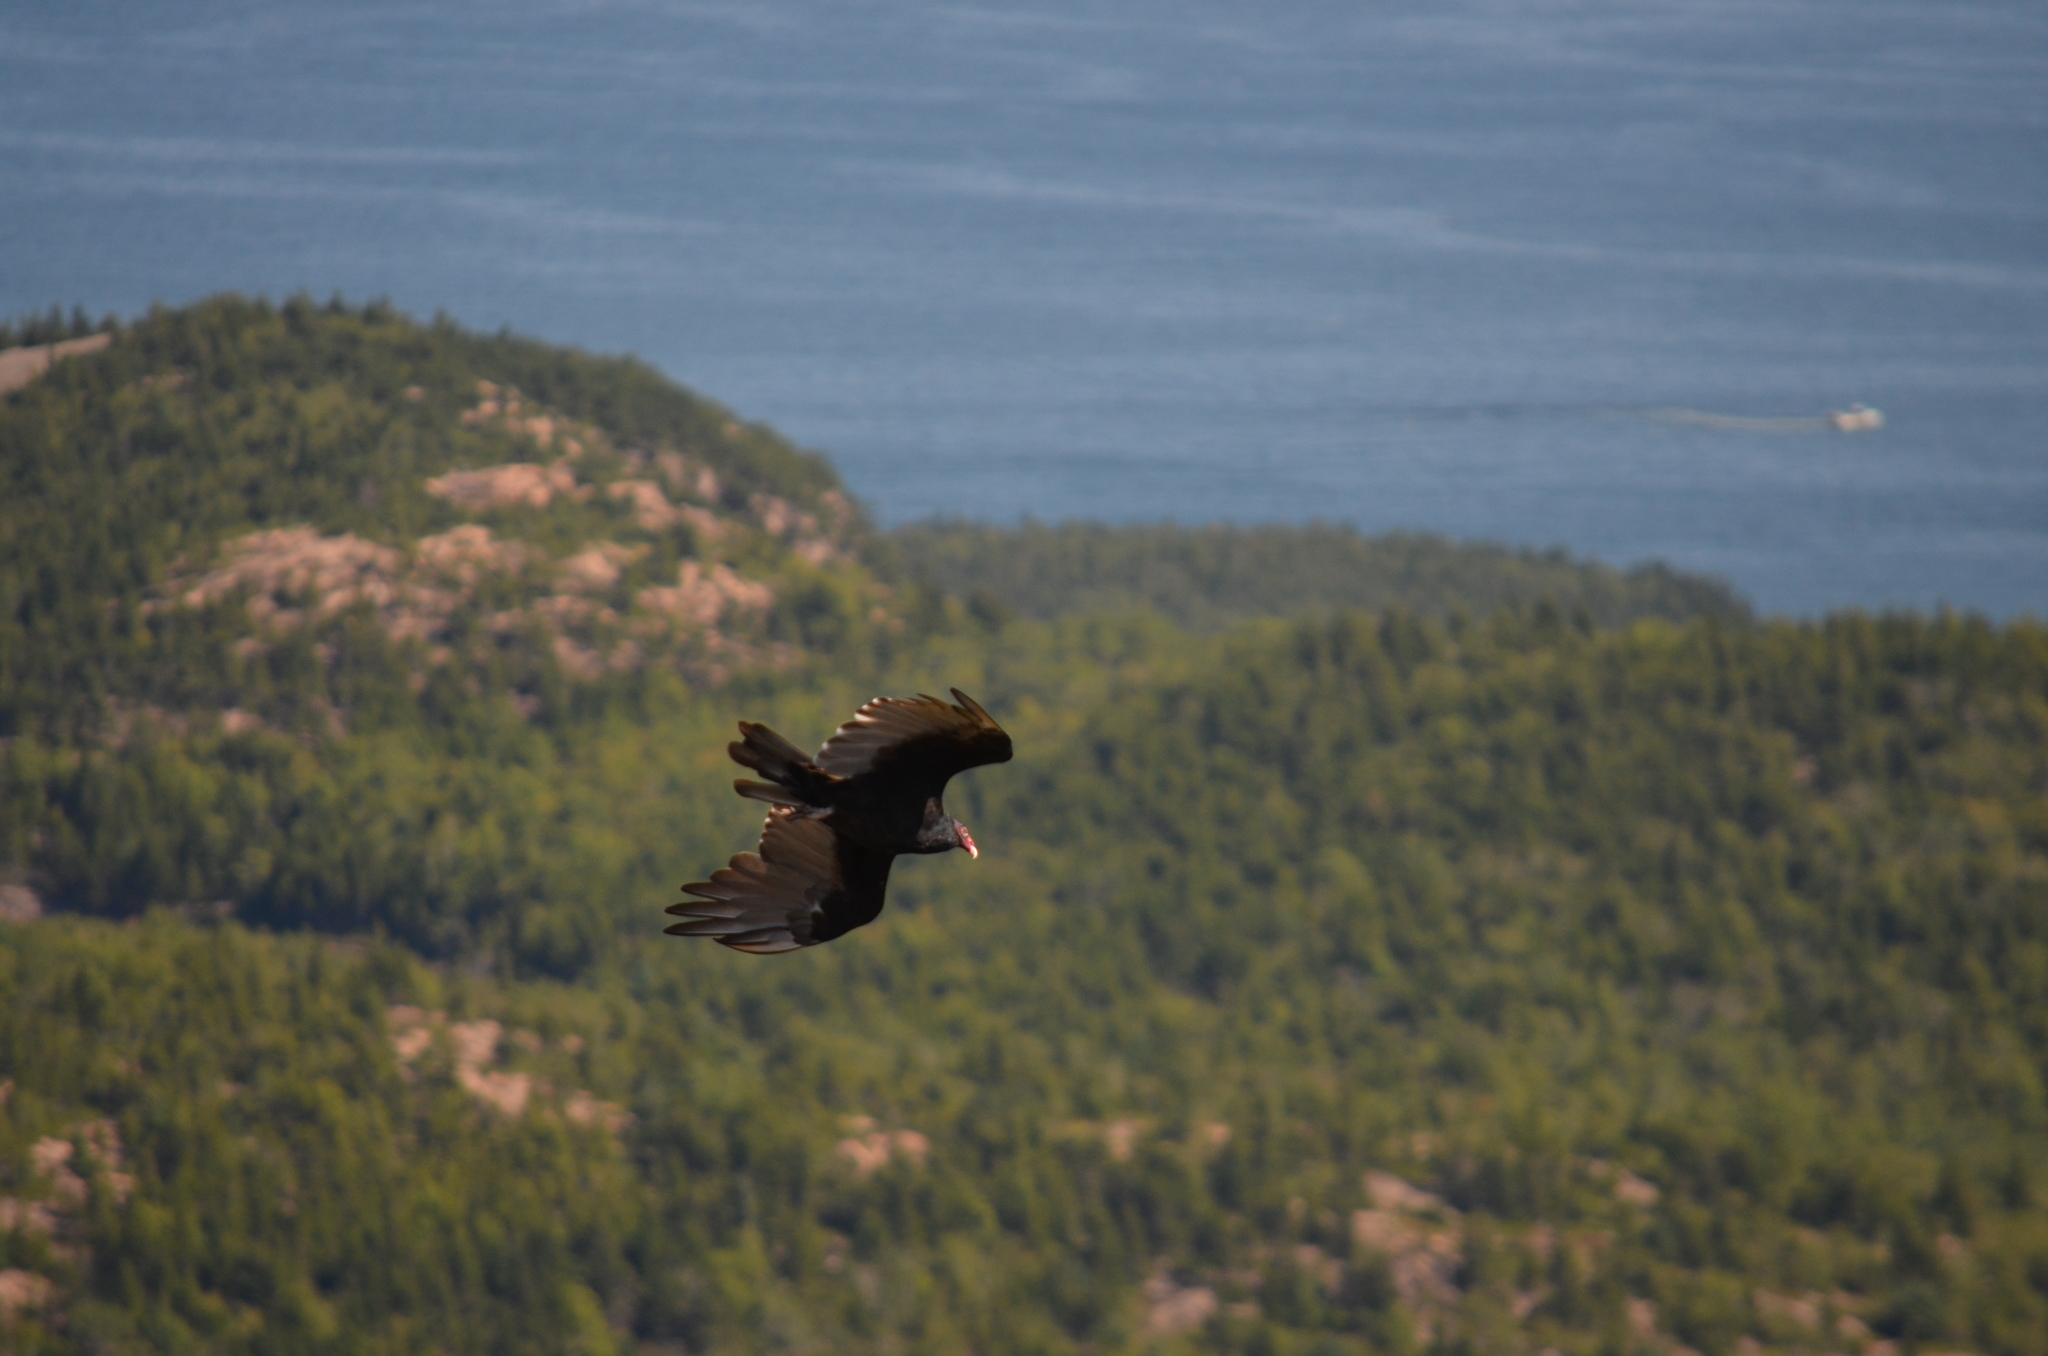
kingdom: Animalia
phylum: Chordata
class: Aves
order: Accipitriformes
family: Cathartidae
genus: Cathartes
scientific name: Cathartes aura
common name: Turkey vulture
